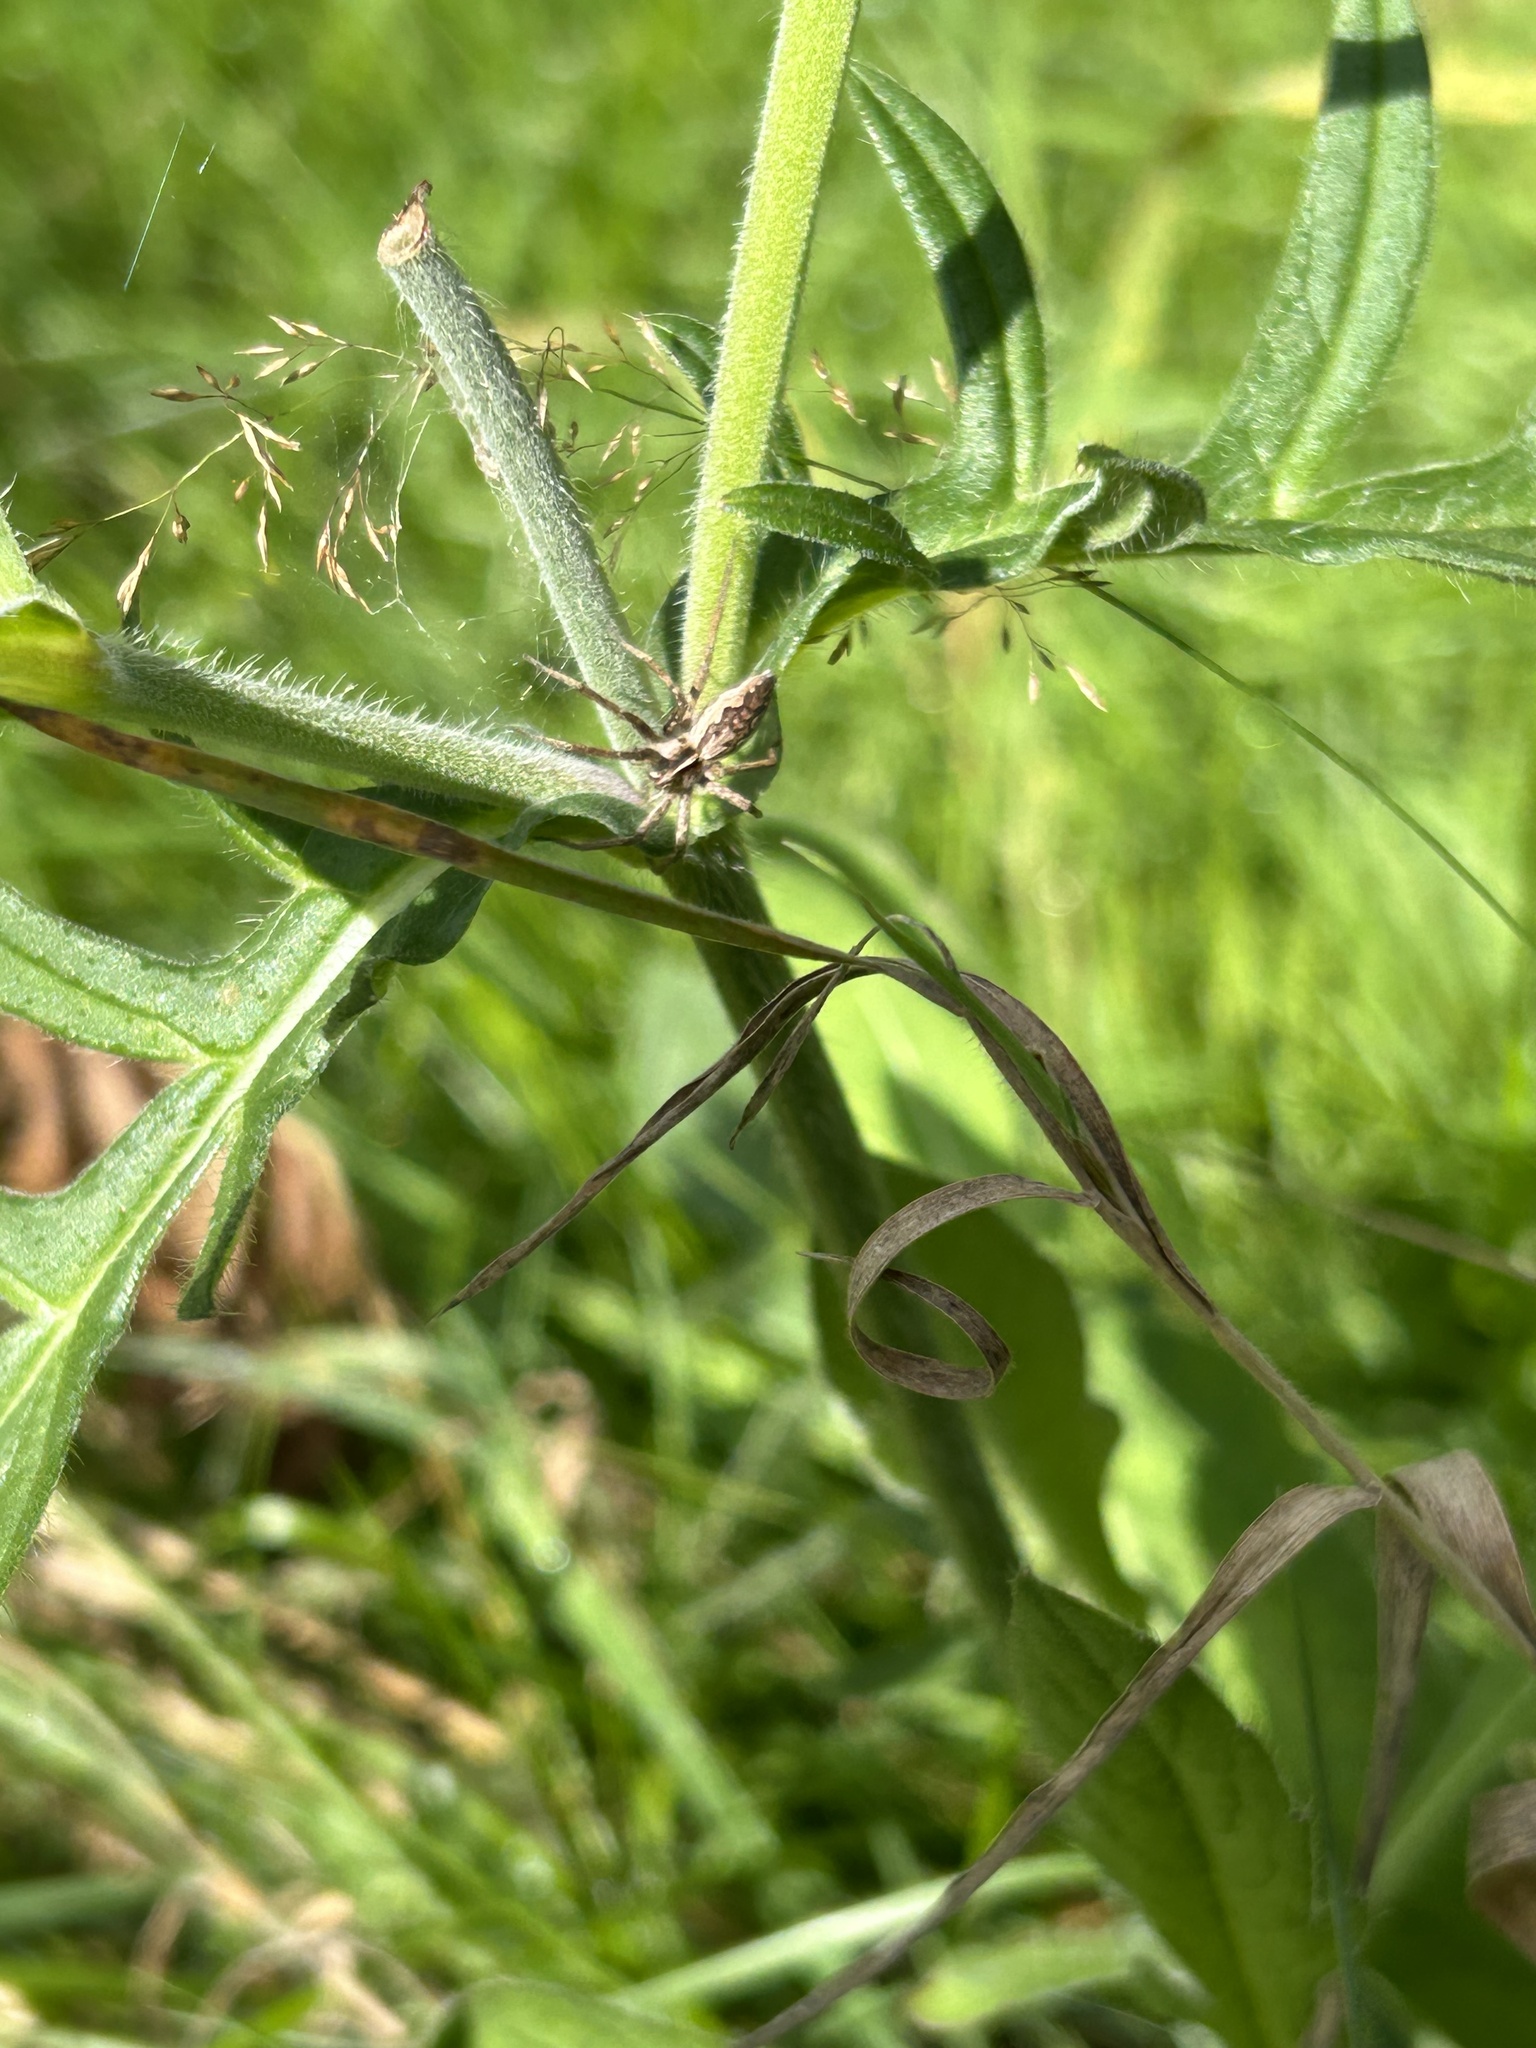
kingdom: Animalia
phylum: Arthropoda
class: Arachnida
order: Araneae
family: Pisauridae
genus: Pisaura
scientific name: Pisaura mirabilis
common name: Tent spider
